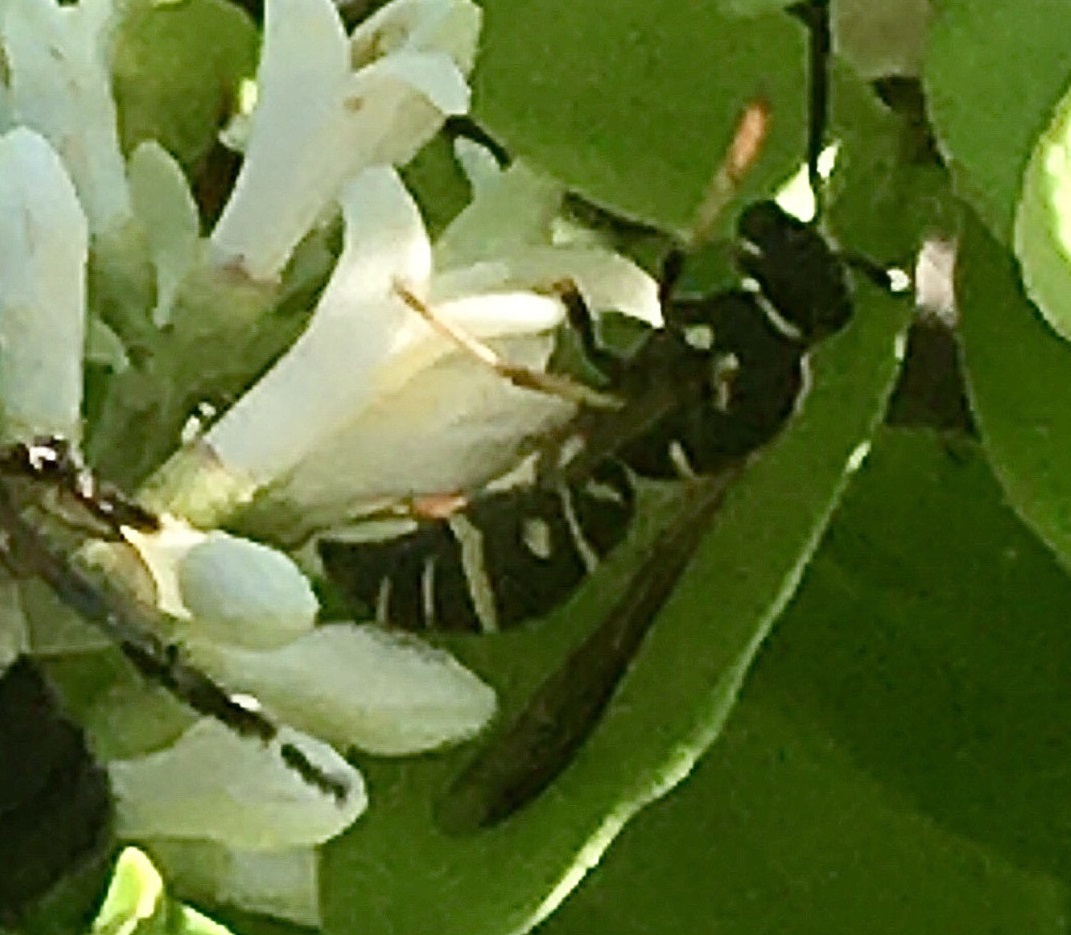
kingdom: Animalia
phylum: Arthropoda
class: Insecta
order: Hymenoptera
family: Eumenidae
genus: Parancistrocerus
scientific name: Parancistrocerus leionotus
